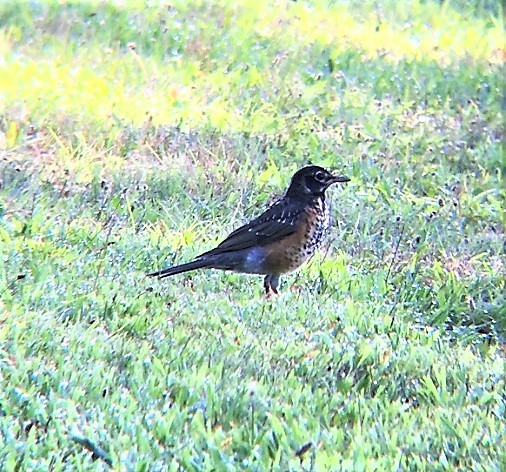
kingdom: Animalia
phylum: Chordata
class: Aves
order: Passeriformes
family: Turdidae
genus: Turdus
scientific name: Turdus migratorius
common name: American robin
